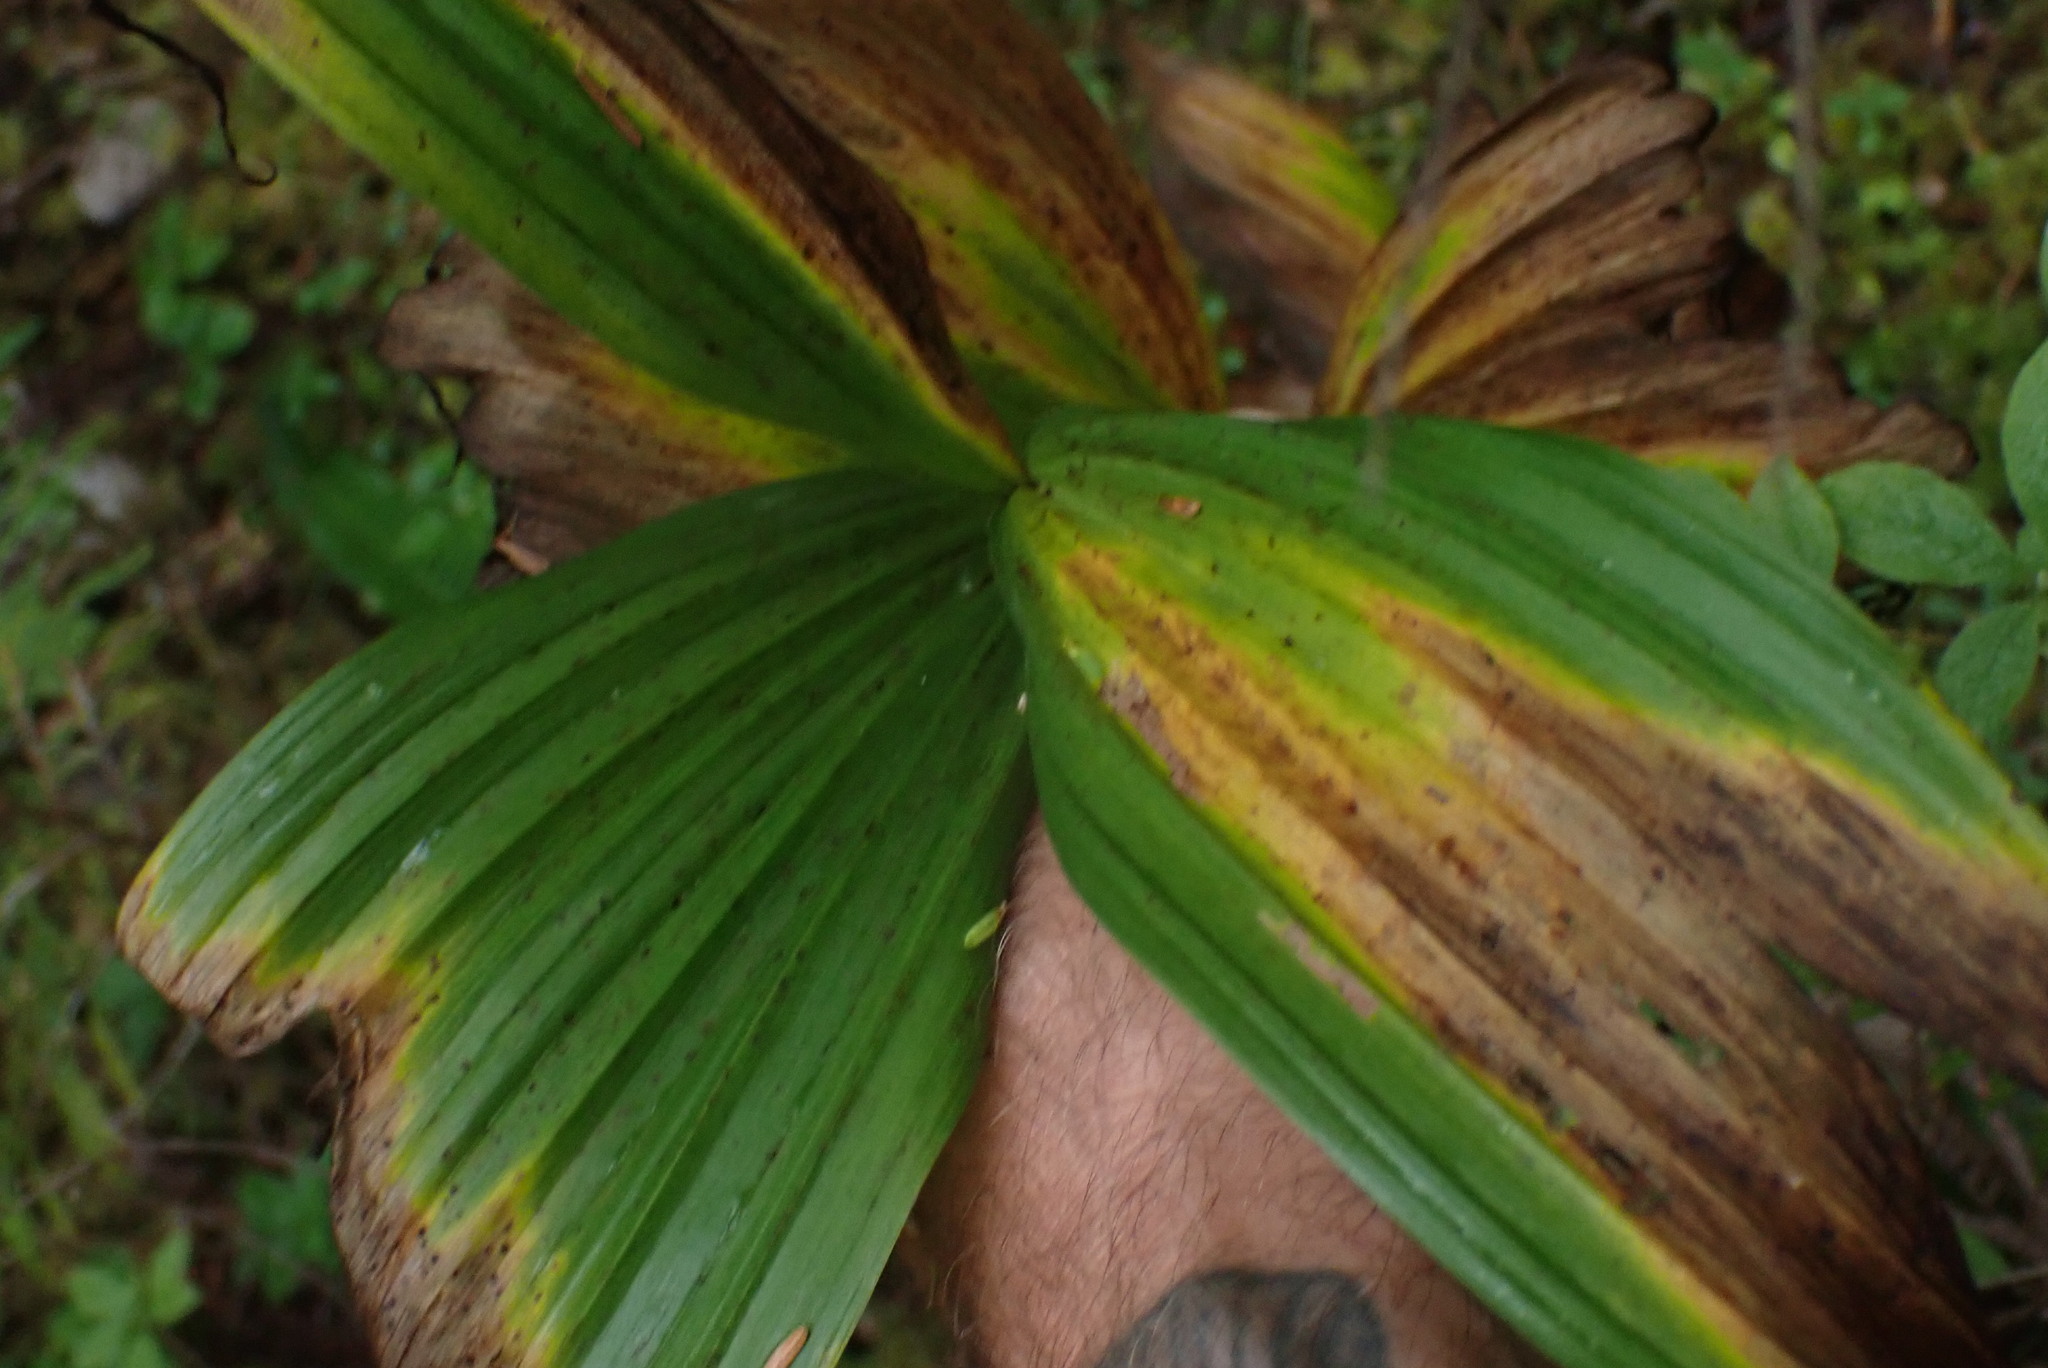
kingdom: Plantae
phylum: Tracheophyta
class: Liliopsida
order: Liliales
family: Melanthiaceae
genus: Veratrum
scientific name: Veratrum viride
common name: American false hellebore
